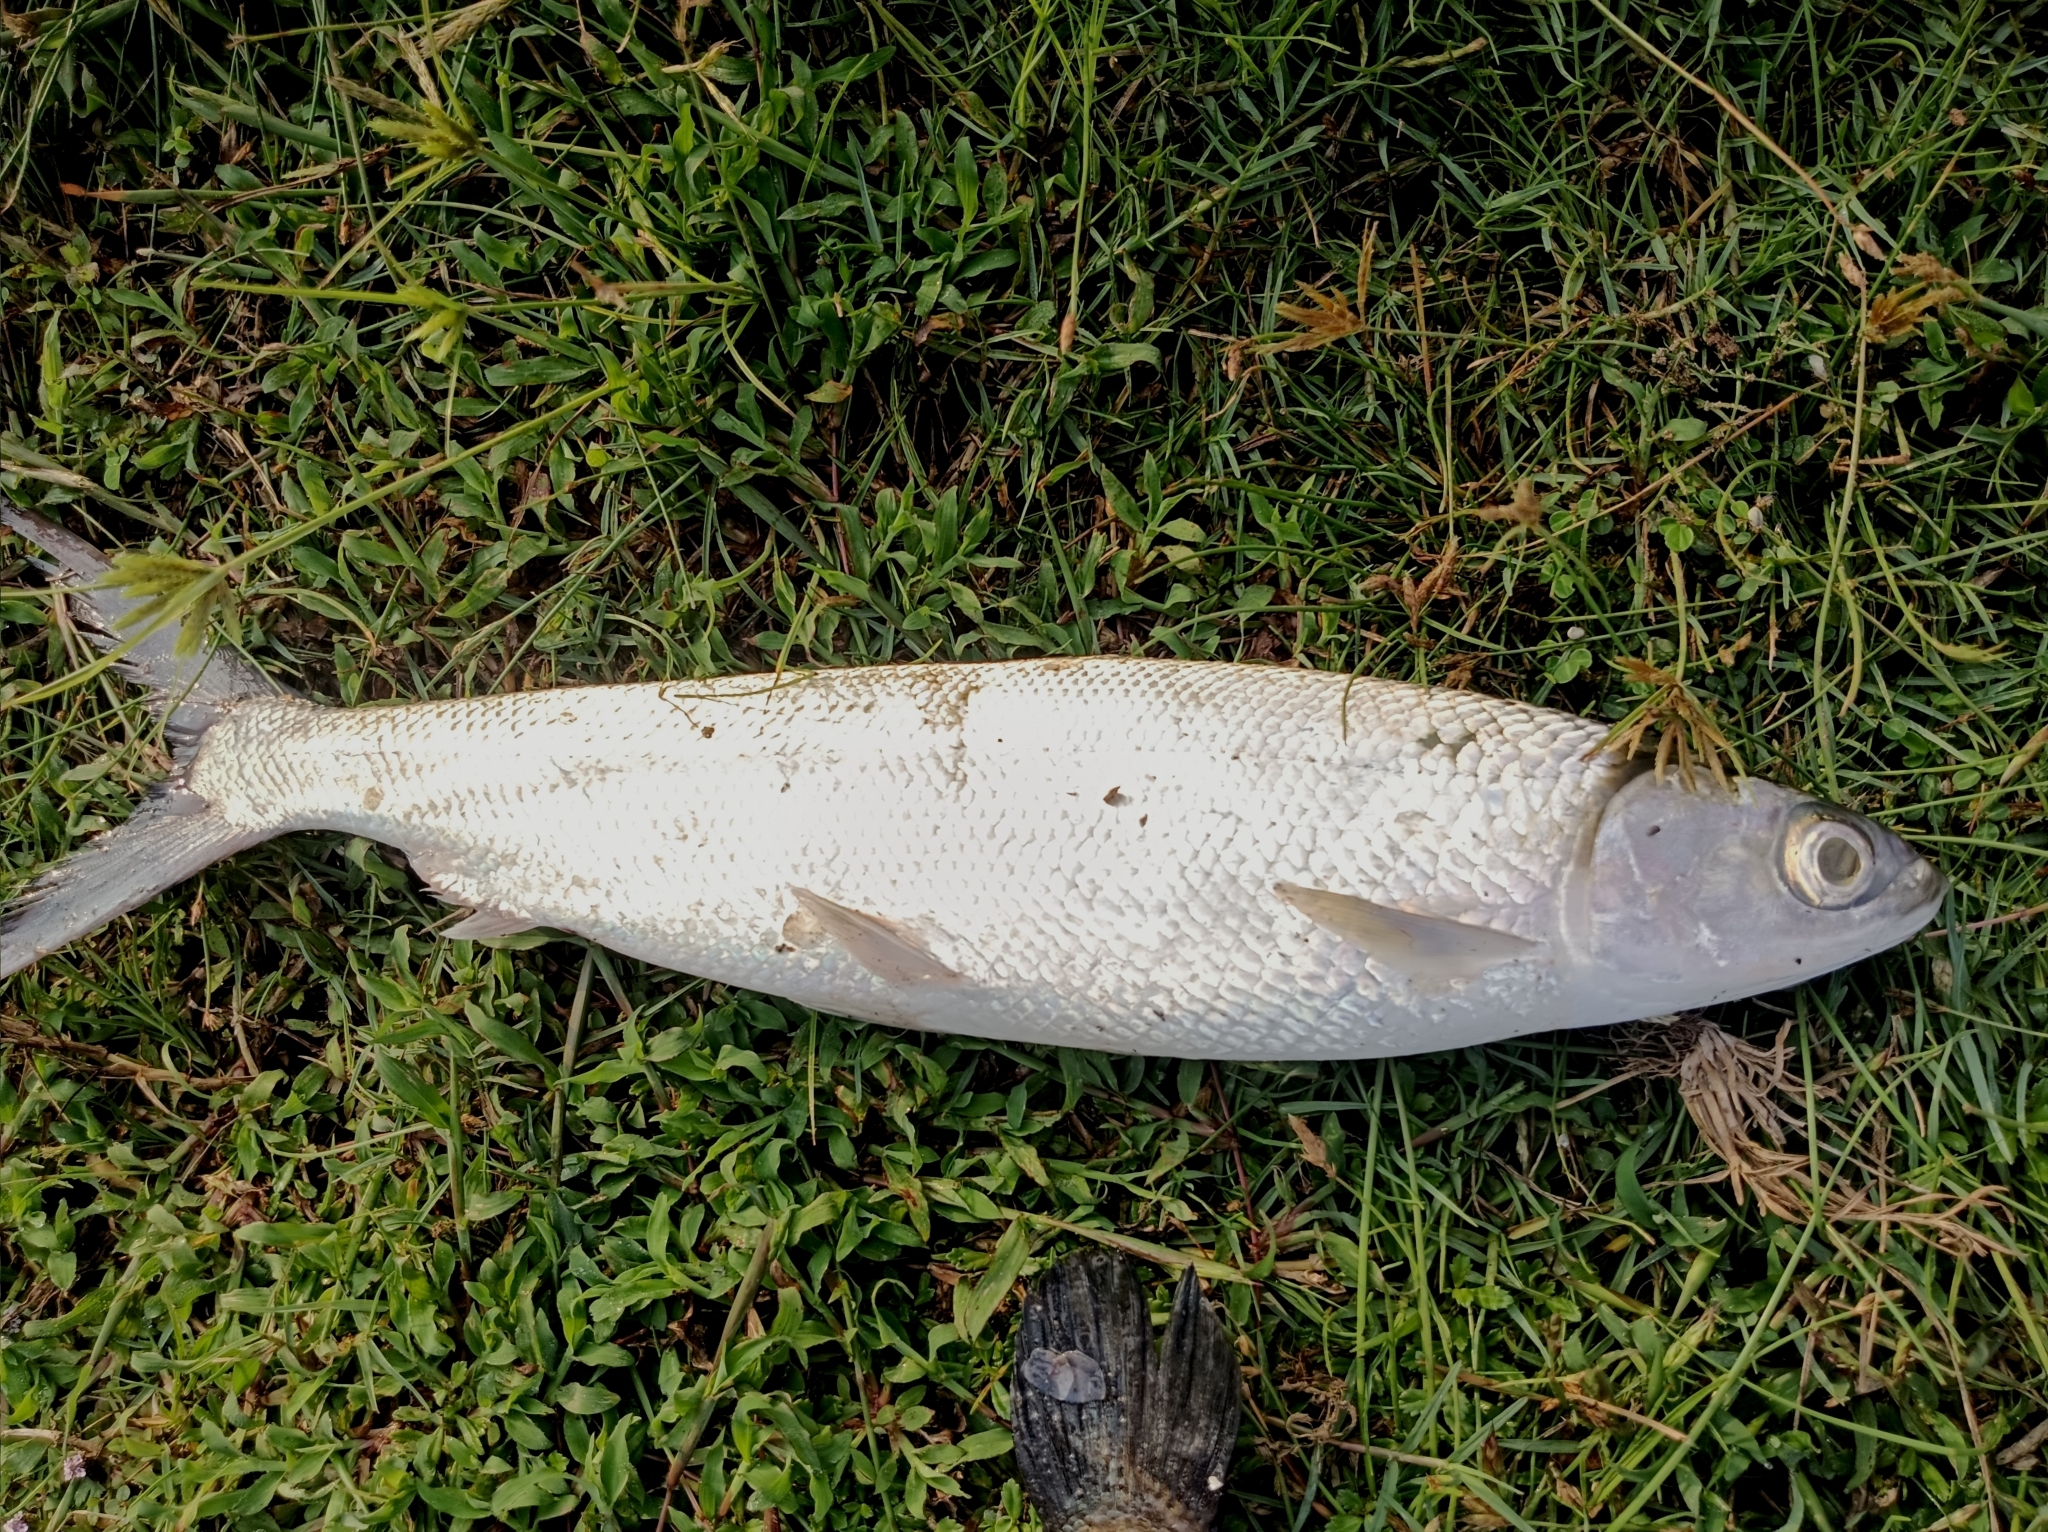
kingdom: Animalia
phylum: Chordata
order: Gonorynchiformes
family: Chanidae
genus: Chanos
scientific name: Chanos chanos
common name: Milkfish
